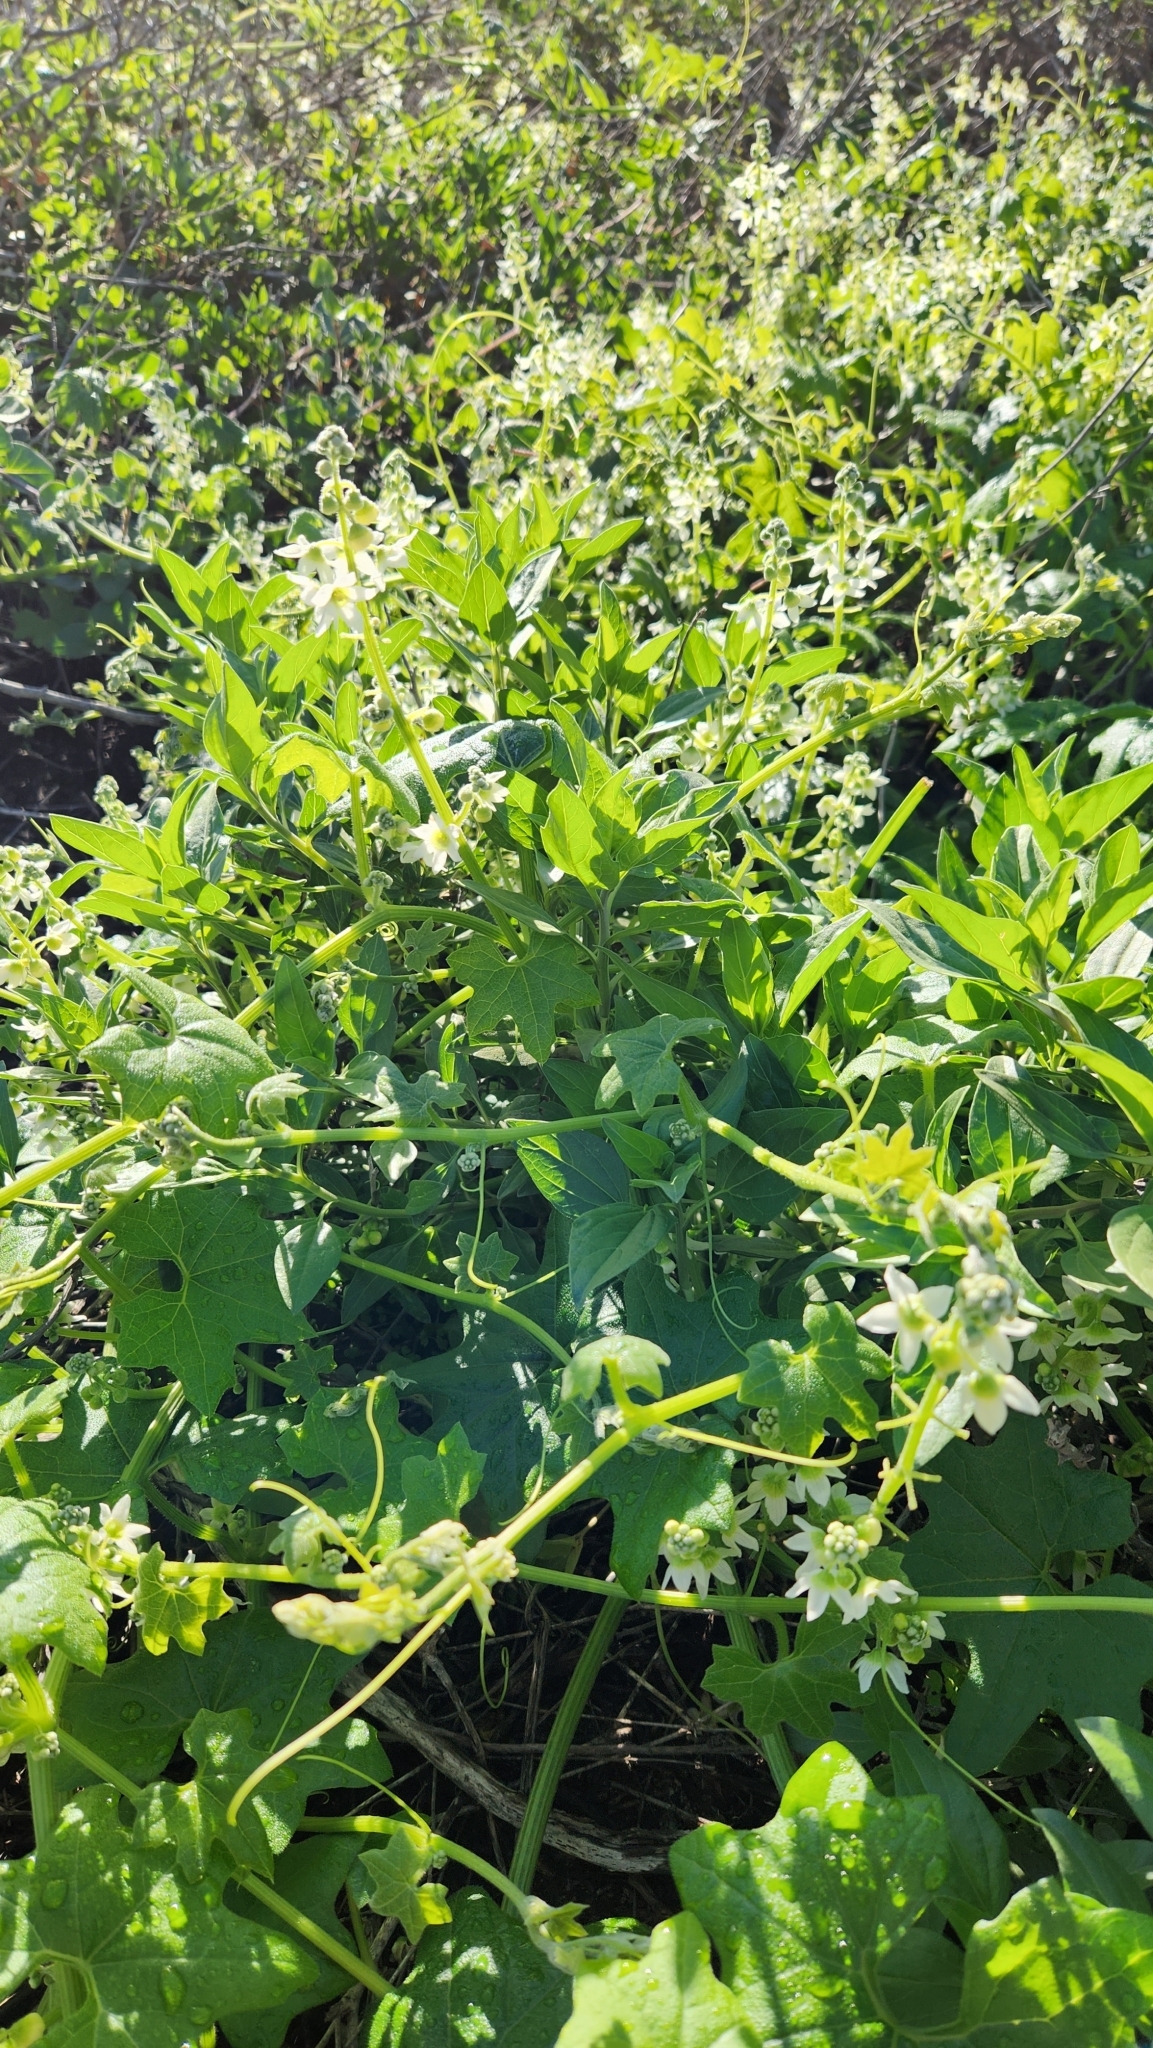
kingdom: Plantae
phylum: Tracheophyta
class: Magnoliopsida
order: Cucurbitales
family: Cucurbitaceae
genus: Marah
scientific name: Marah macrocarpa
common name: Cucamonga manroot
